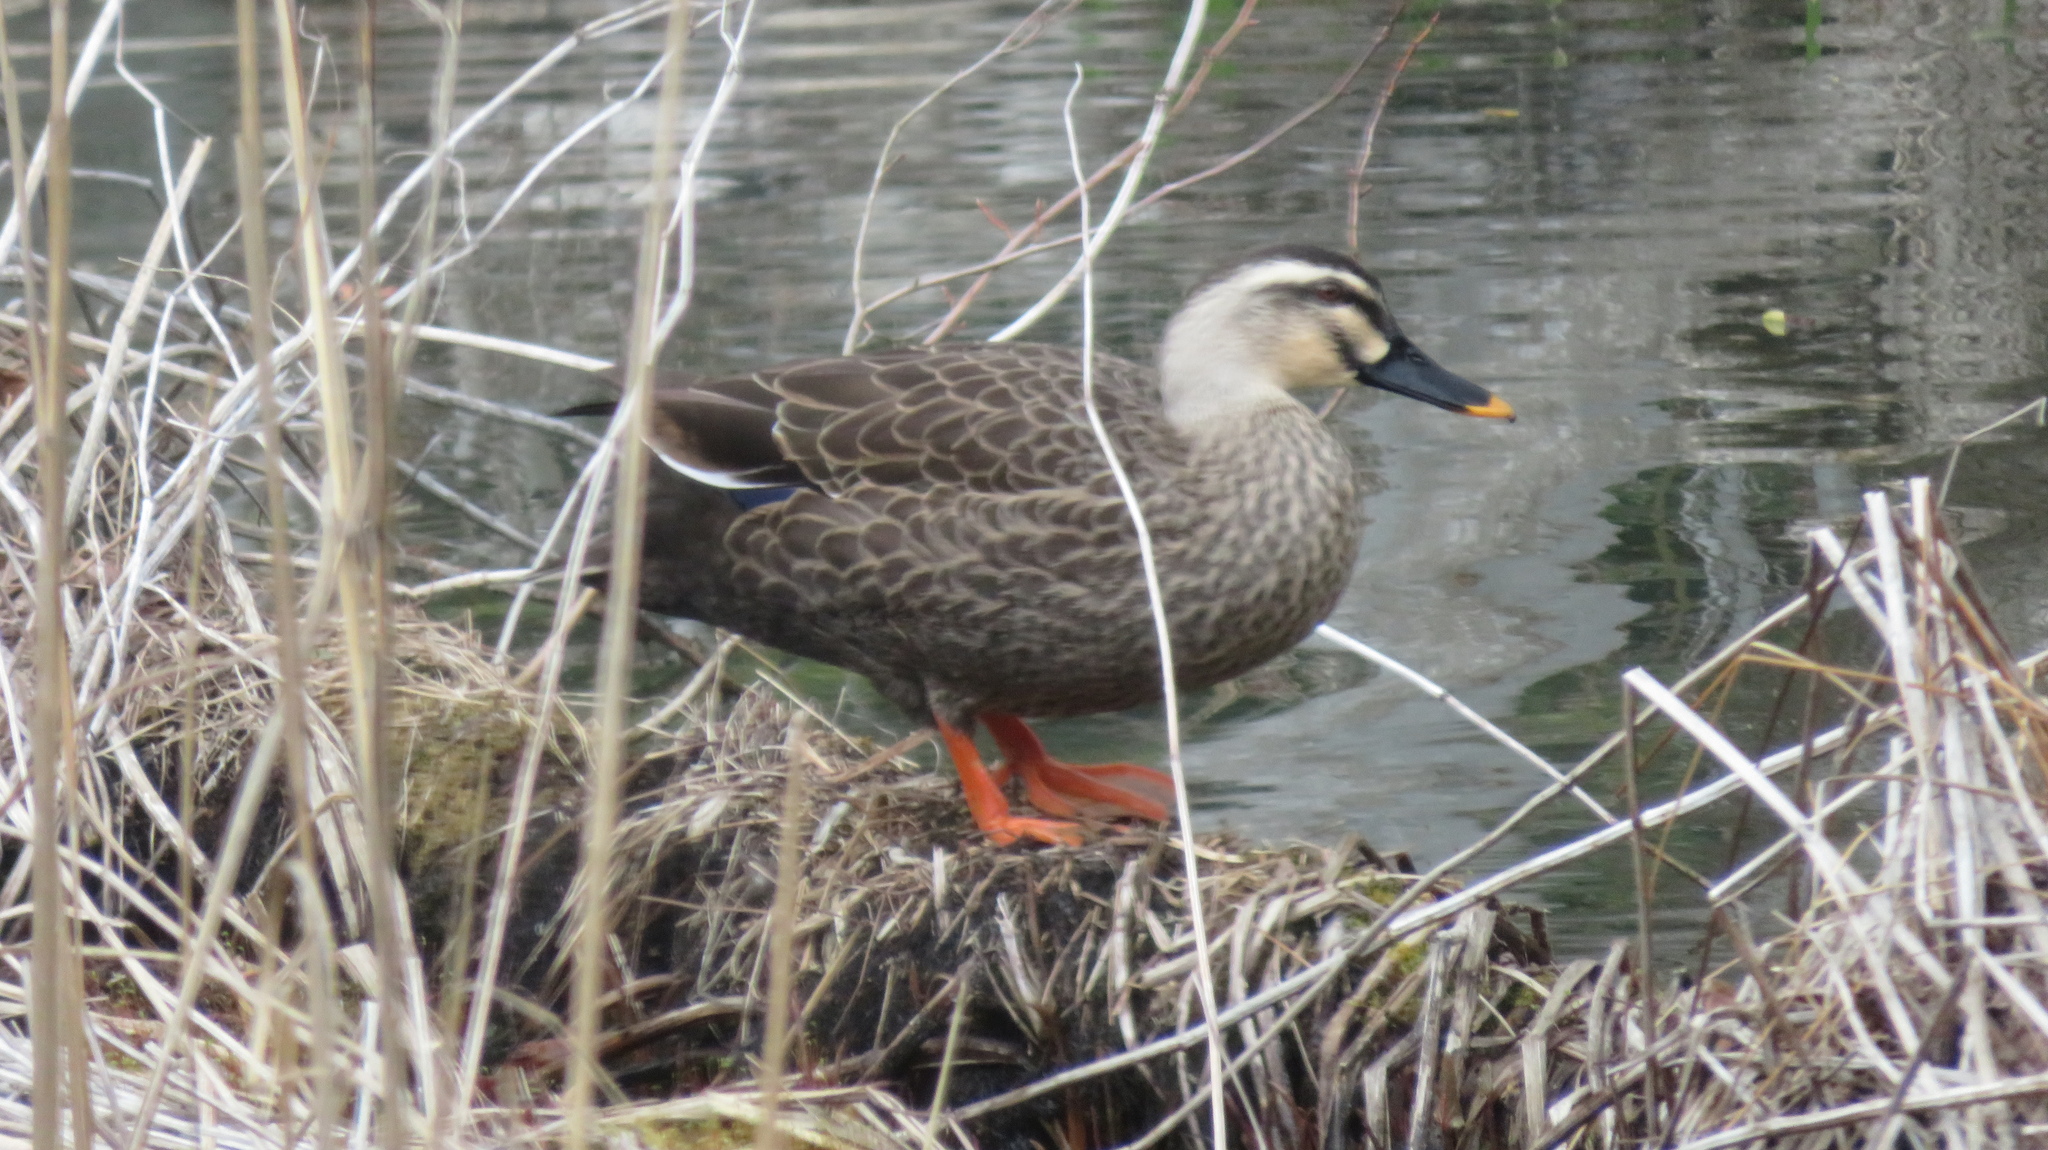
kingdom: Animalia
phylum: Chordata
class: Aves
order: Anseriformes
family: Anatidae
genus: Anas
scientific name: Anas zonorhyncha
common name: Eastern spot-billed duck
